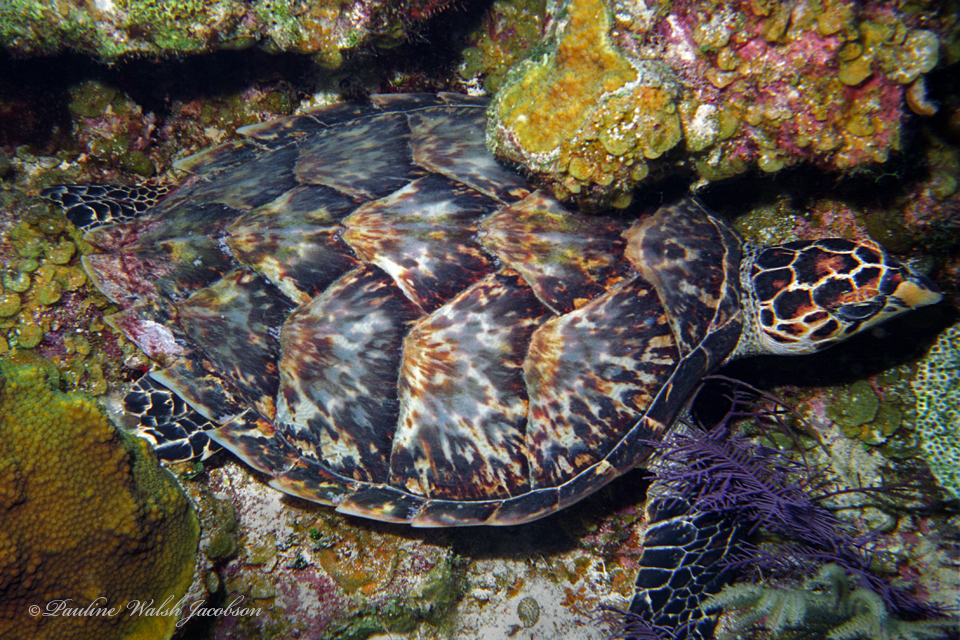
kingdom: Animalia
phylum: Chordata
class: Testudines
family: Cheloniidae
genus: Eretmochelys
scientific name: Eretmochelys imbricata
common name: Hawksbill turtle
